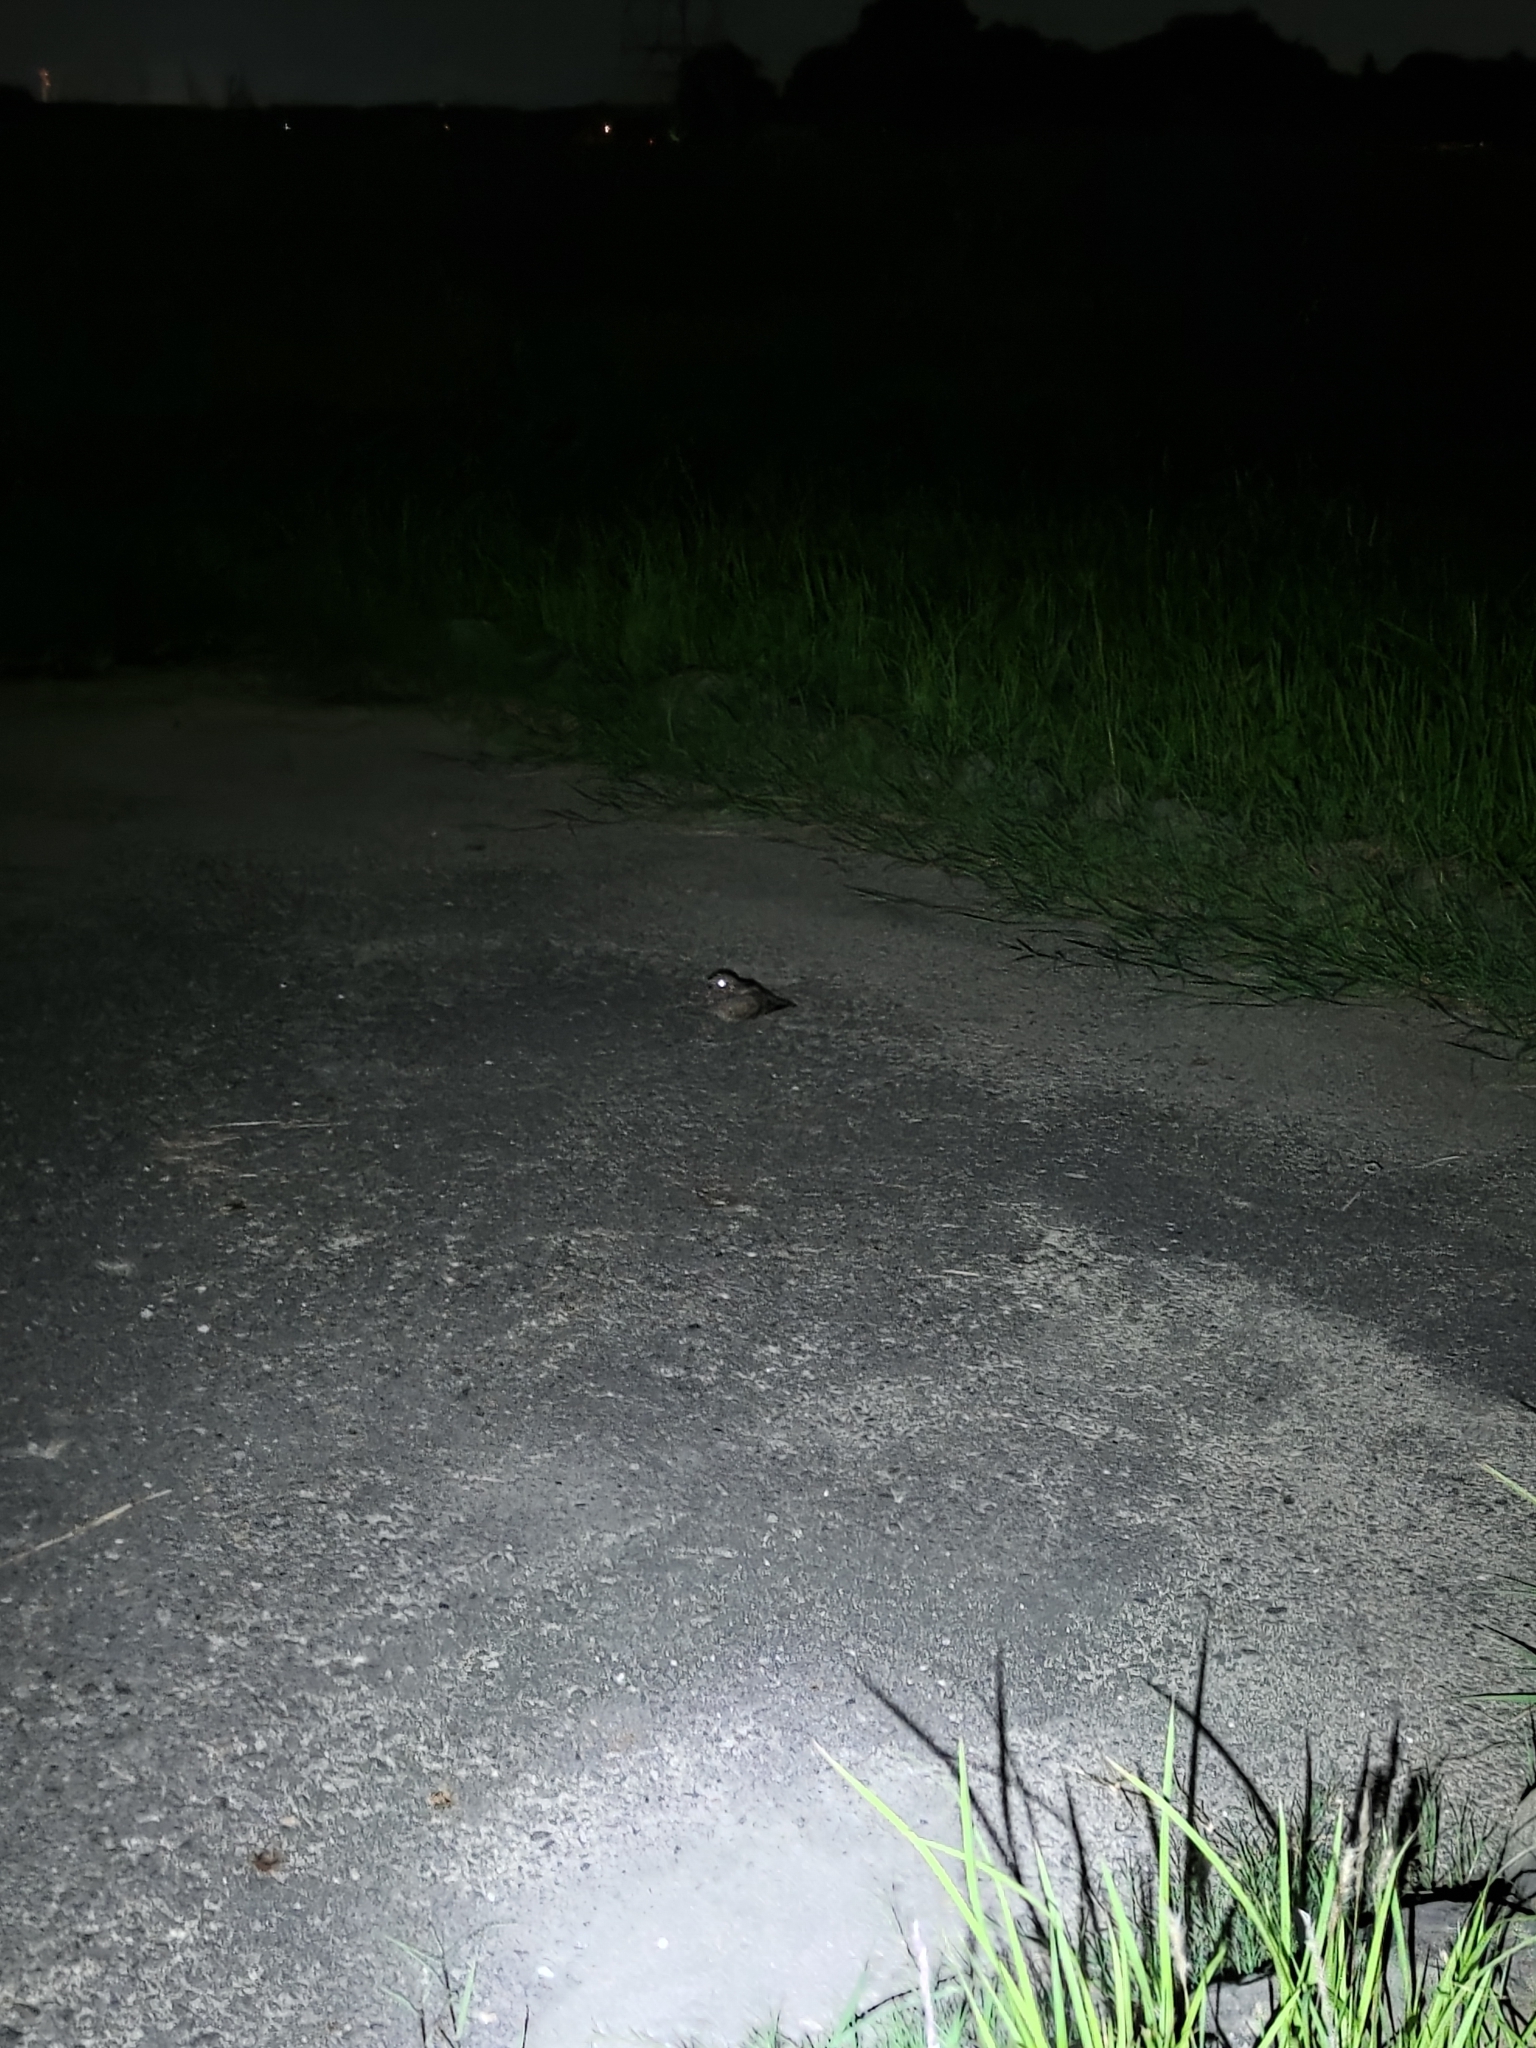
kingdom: Animalia
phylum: Chordata
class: Aves
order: Caprimulgiformes
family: Caprimulgidae
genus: Caprimulgus
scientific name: Caprimulgus affinis
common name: Savanna nightjar
